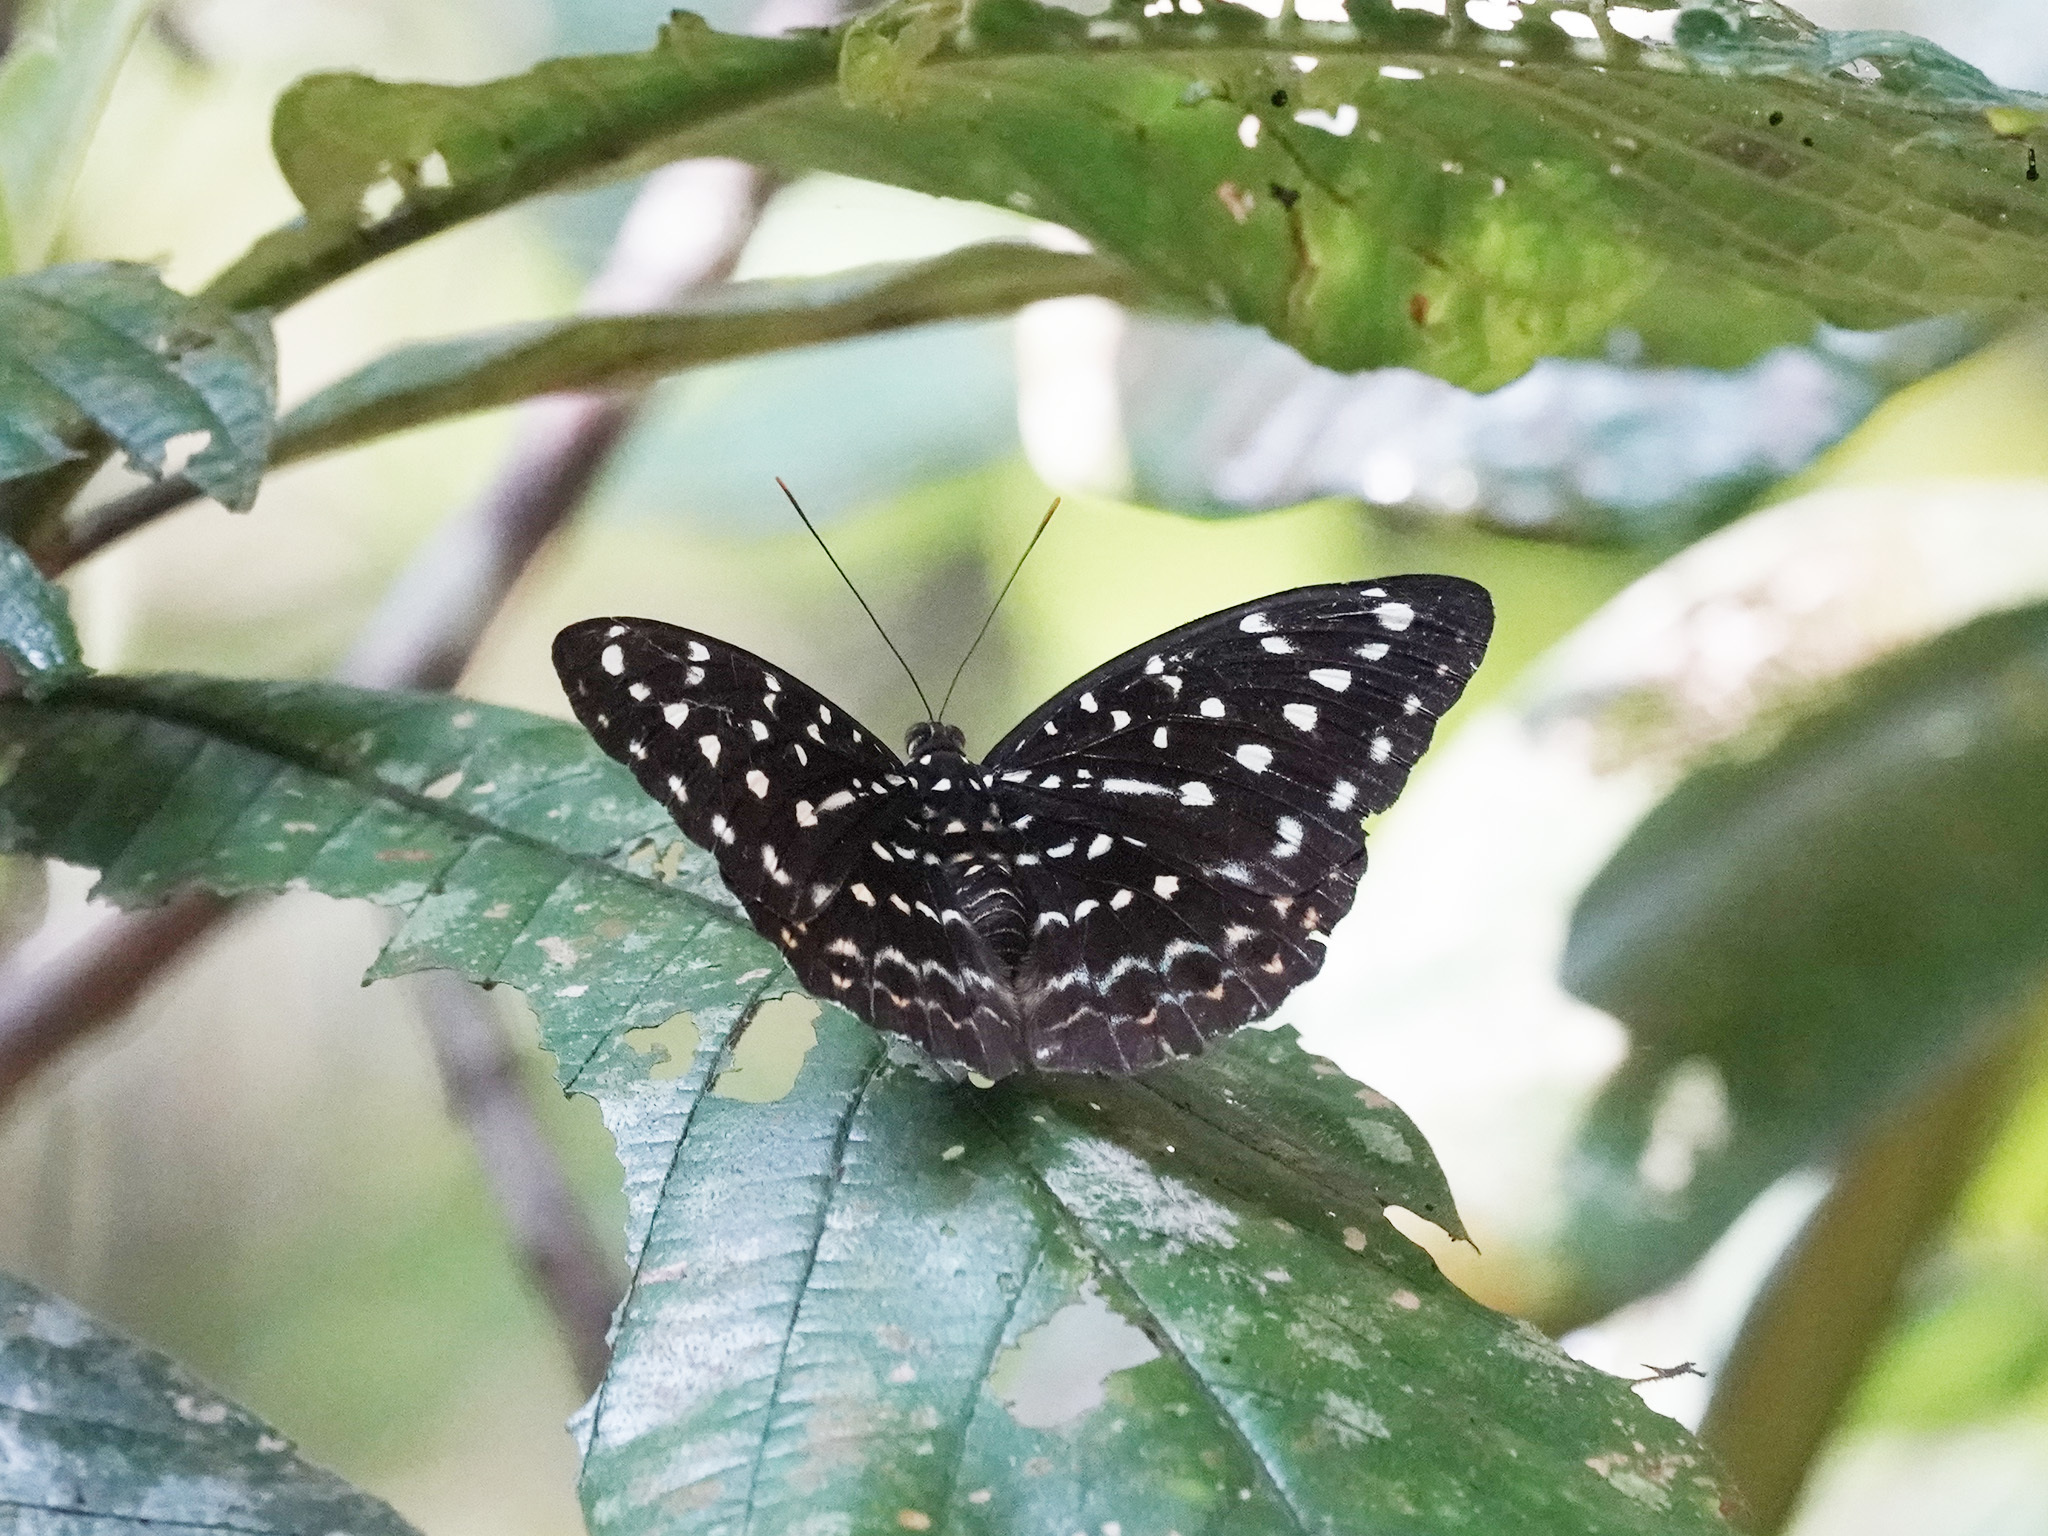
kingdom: Animalia
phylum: Arthropoda
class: Insecta
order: Lepidoptera
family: Nymphalidae
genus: Lexias
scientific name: Lexias pardalis
